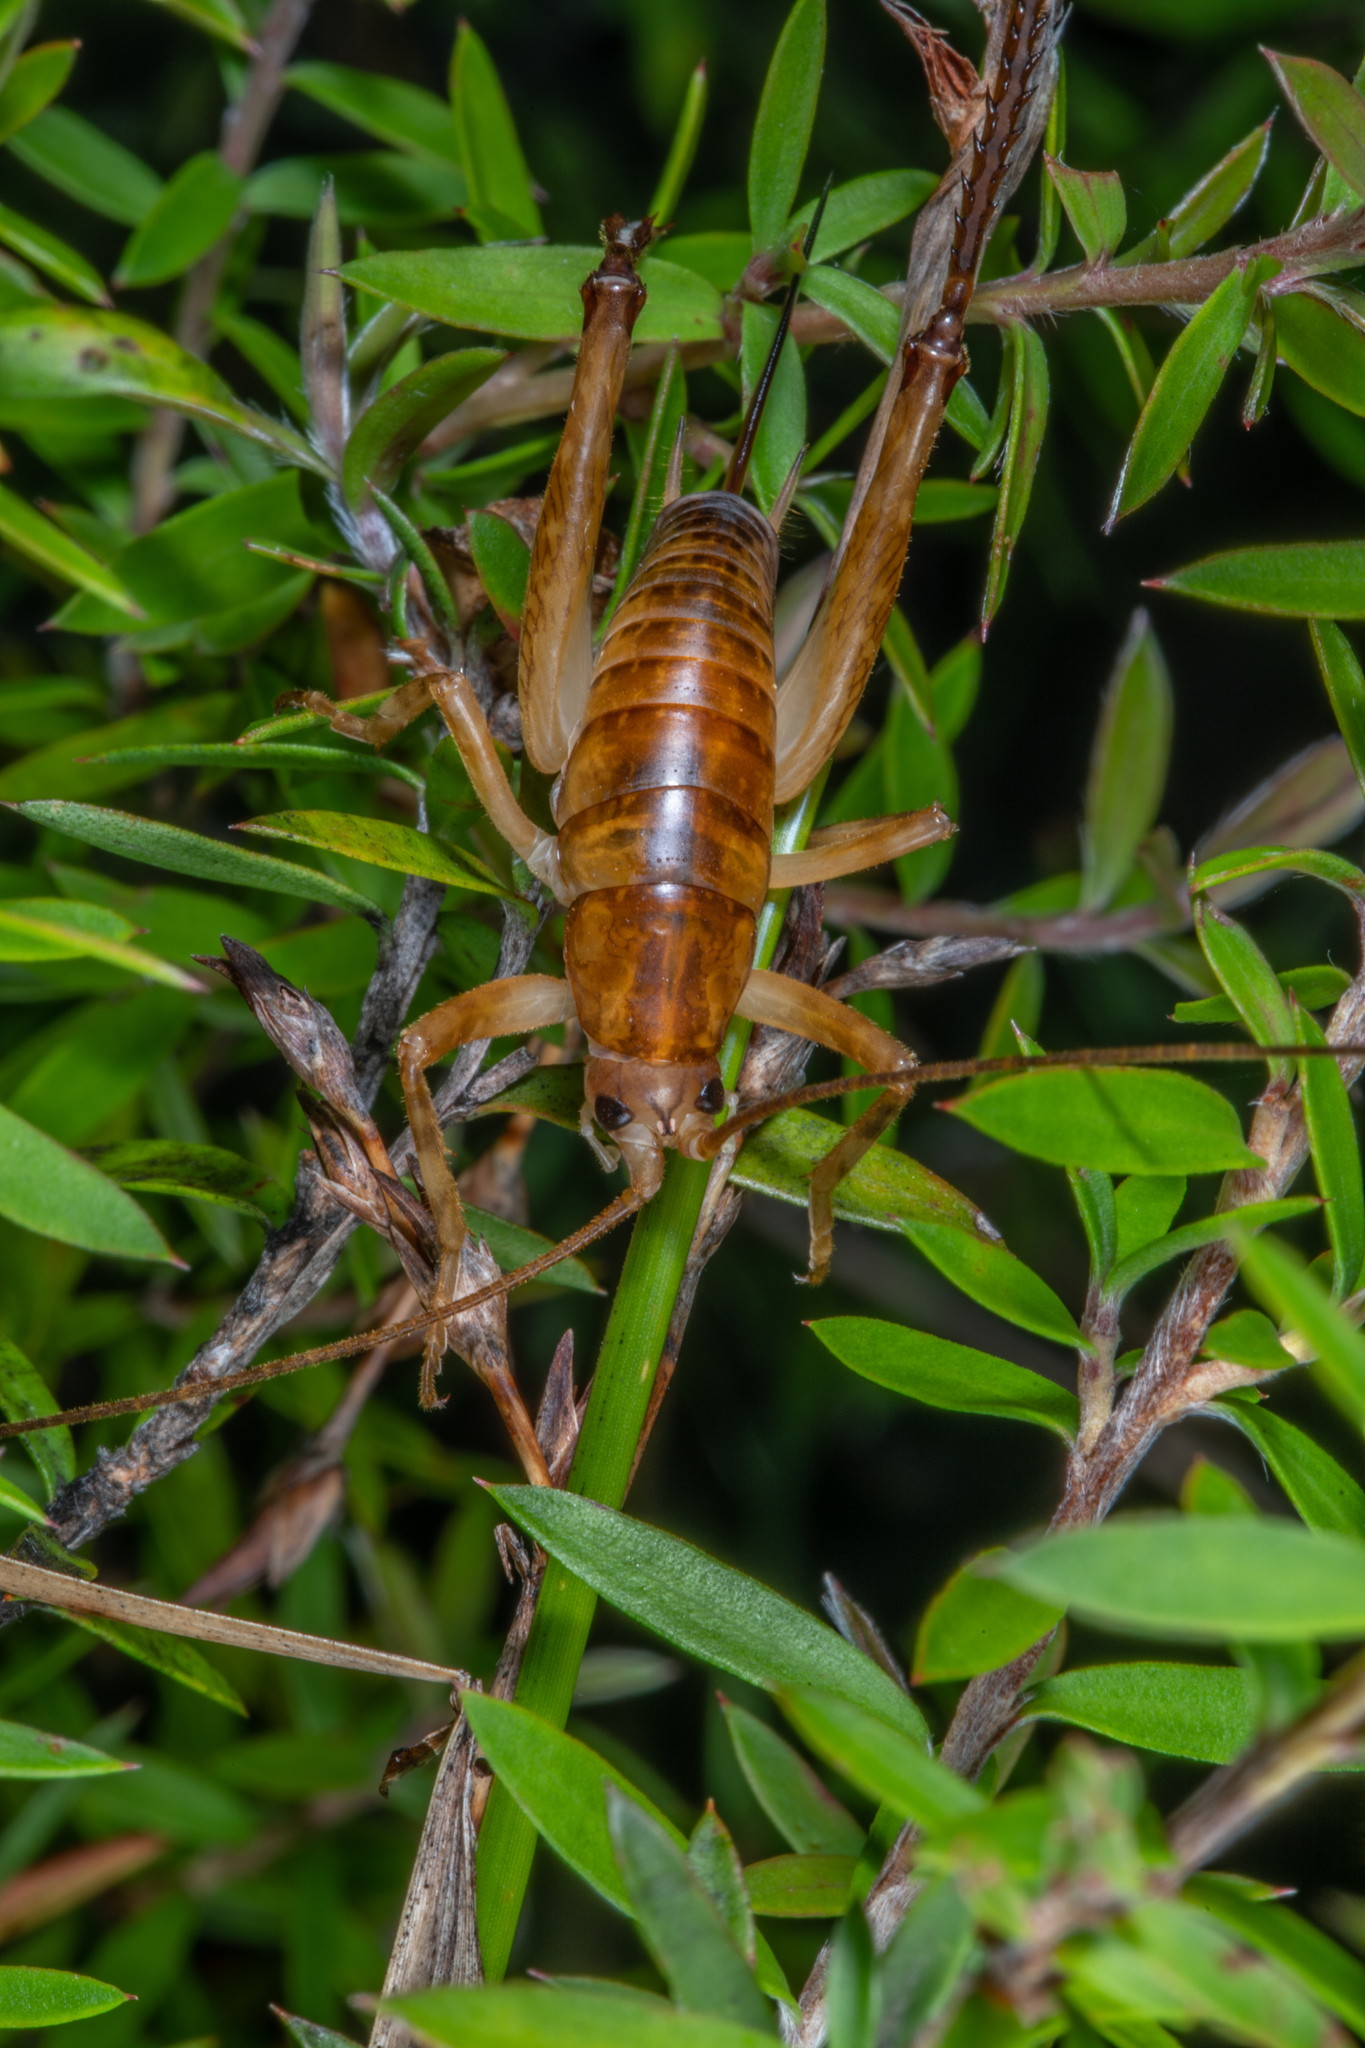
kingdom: Animalia
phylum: Arthropoda
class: Insecta
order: Orthoptera
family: Rhaphidophoridae
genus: Talitropsis
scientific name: Talitropsis sedilloti
